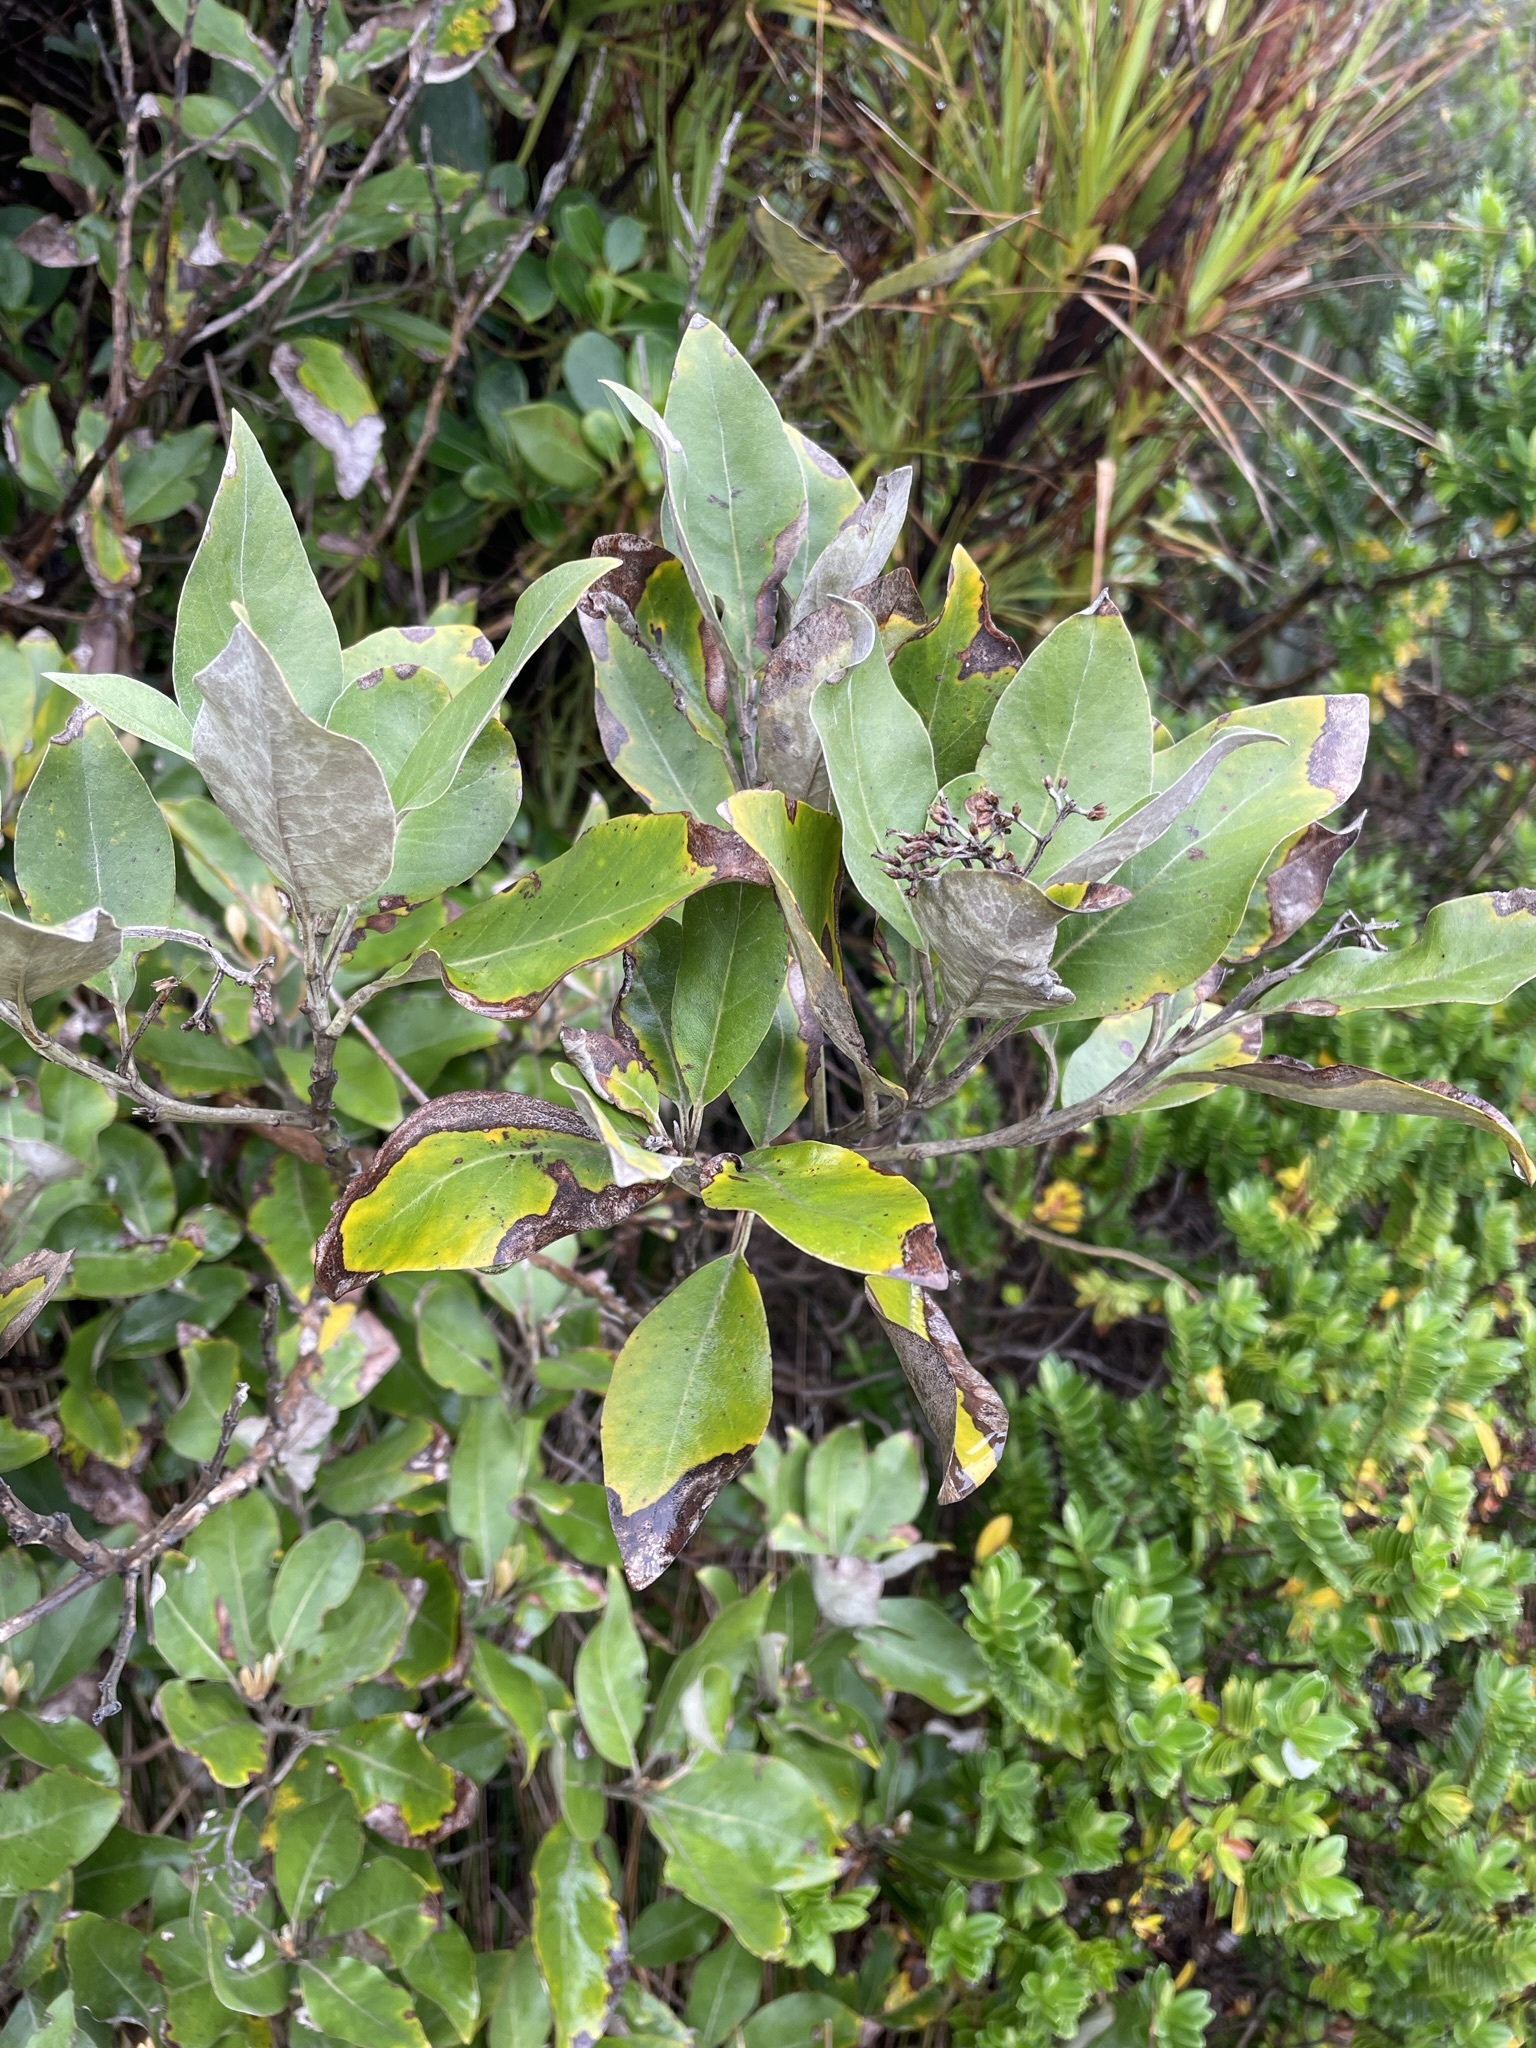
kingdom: Plantae
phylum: Tracheophyta
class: Magnoliopsida
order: Asterales
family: Asteraceae
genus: Olearia
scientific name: Olearia avicenniifolia
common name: Mangrove-leaf daisybush
